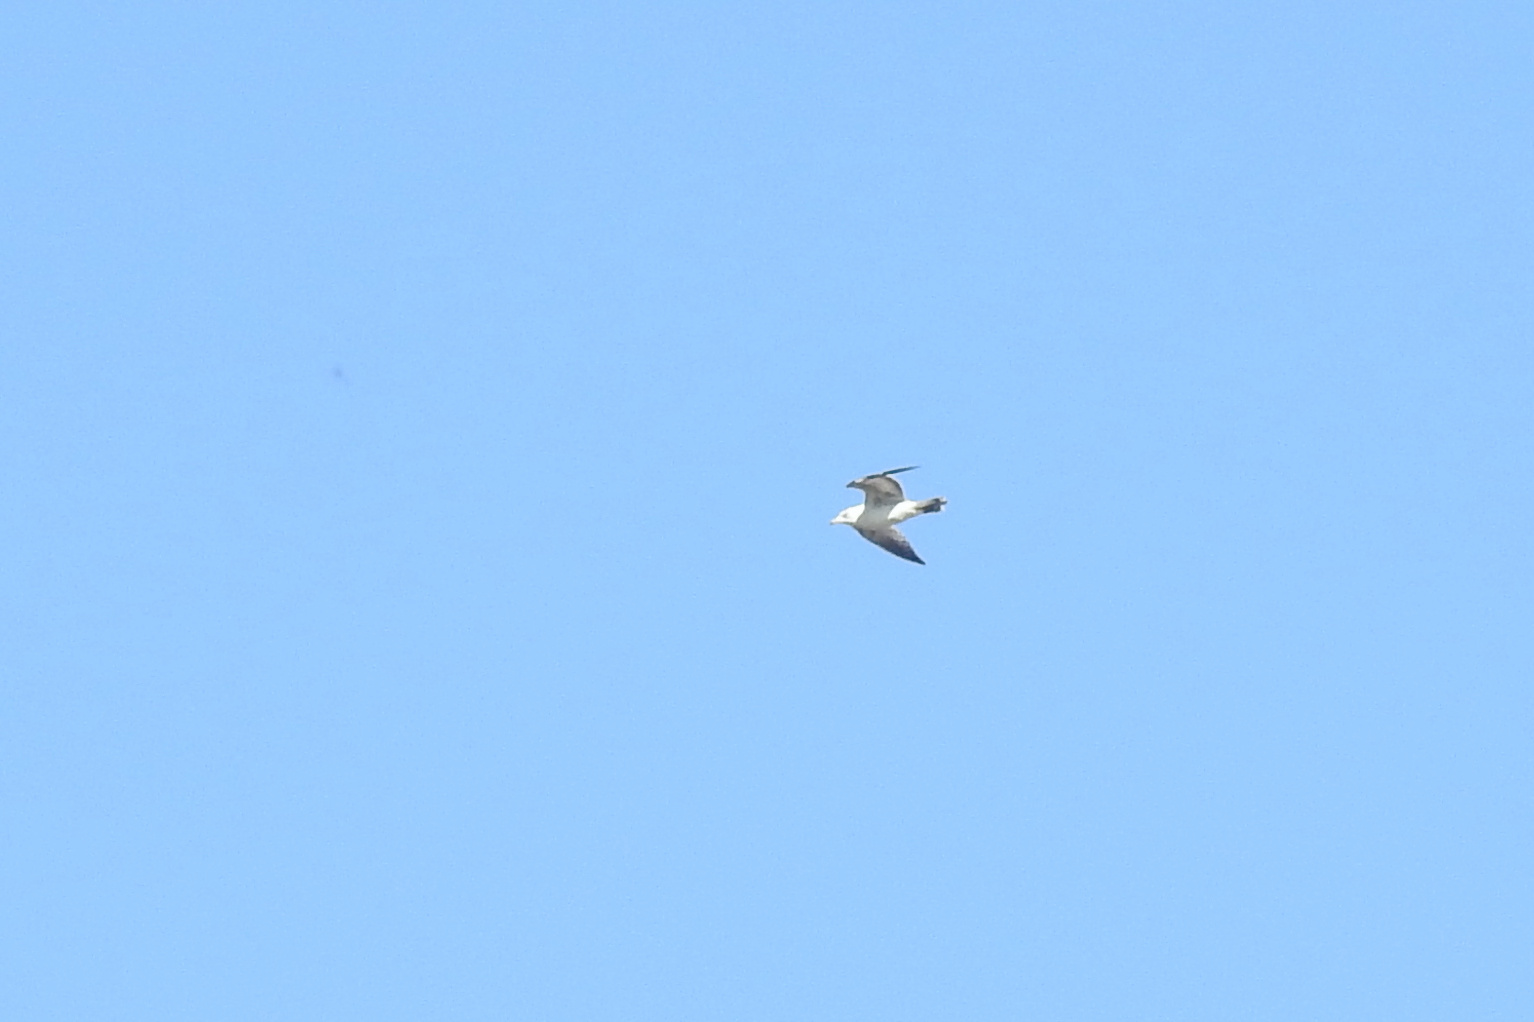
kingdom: Animalia
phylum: Chordata
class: Aves
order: Charadriiformes
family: Laridae
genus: Larus
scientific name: Larus delawarensis
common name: Ring-billed gull
